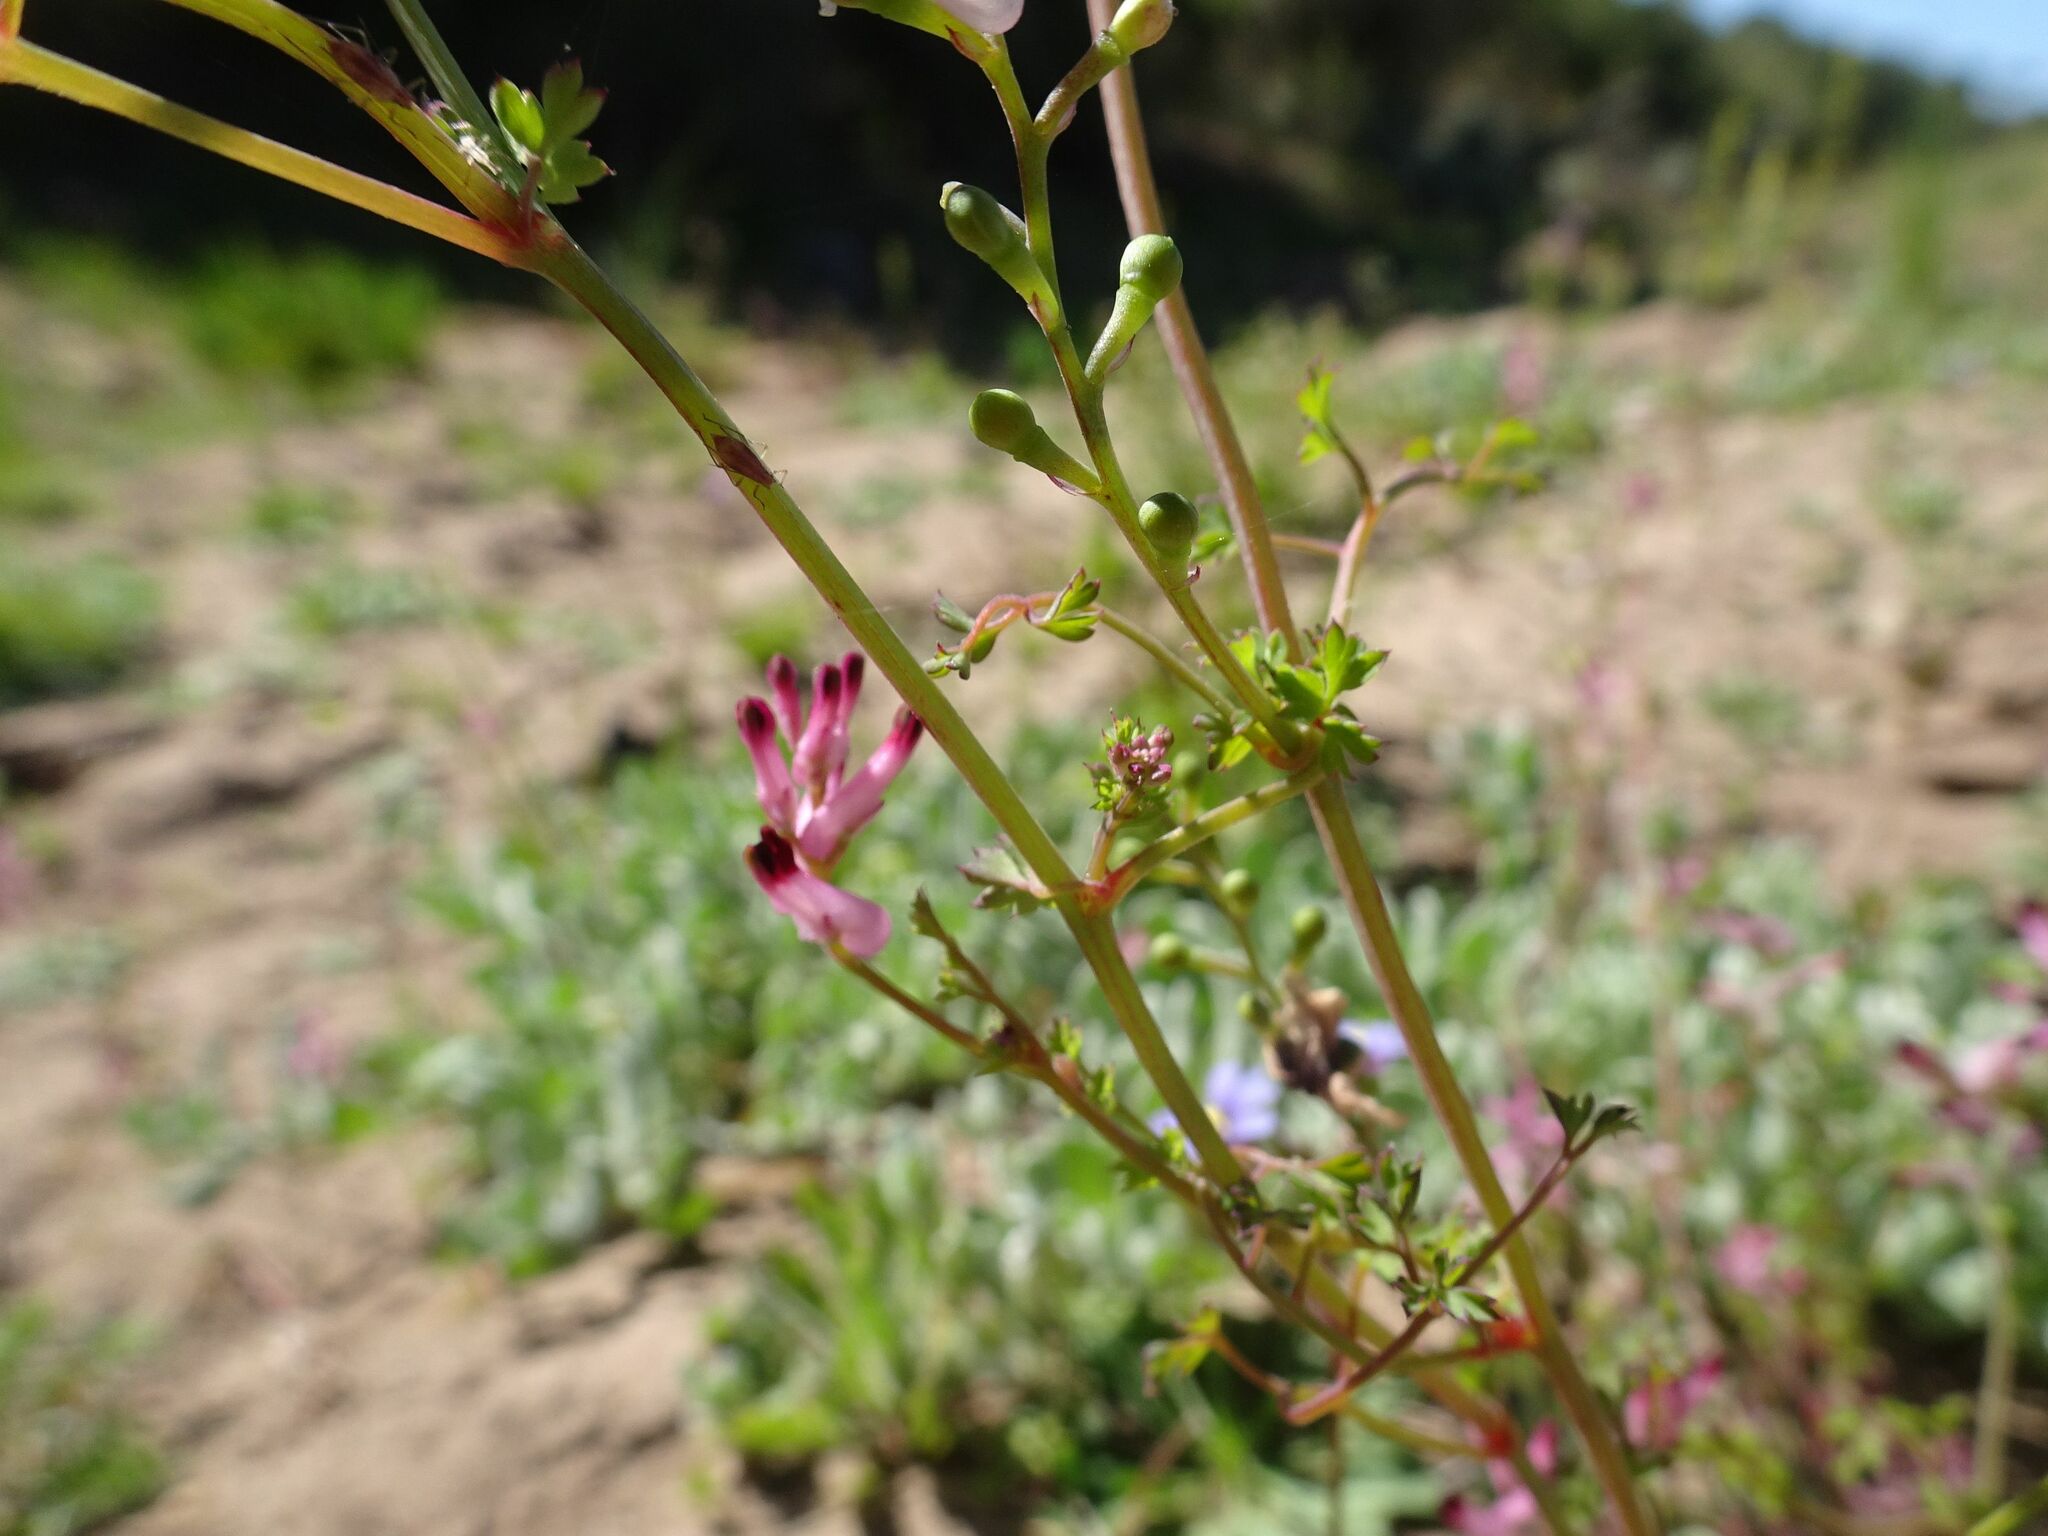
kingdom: Plantae
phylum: Tracheophyta
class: Magnoliopsida
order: Ranunculales
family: Papaveraceae
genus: Fumaria
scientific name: Fumaria muralis
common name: Common ramping-fumitory
